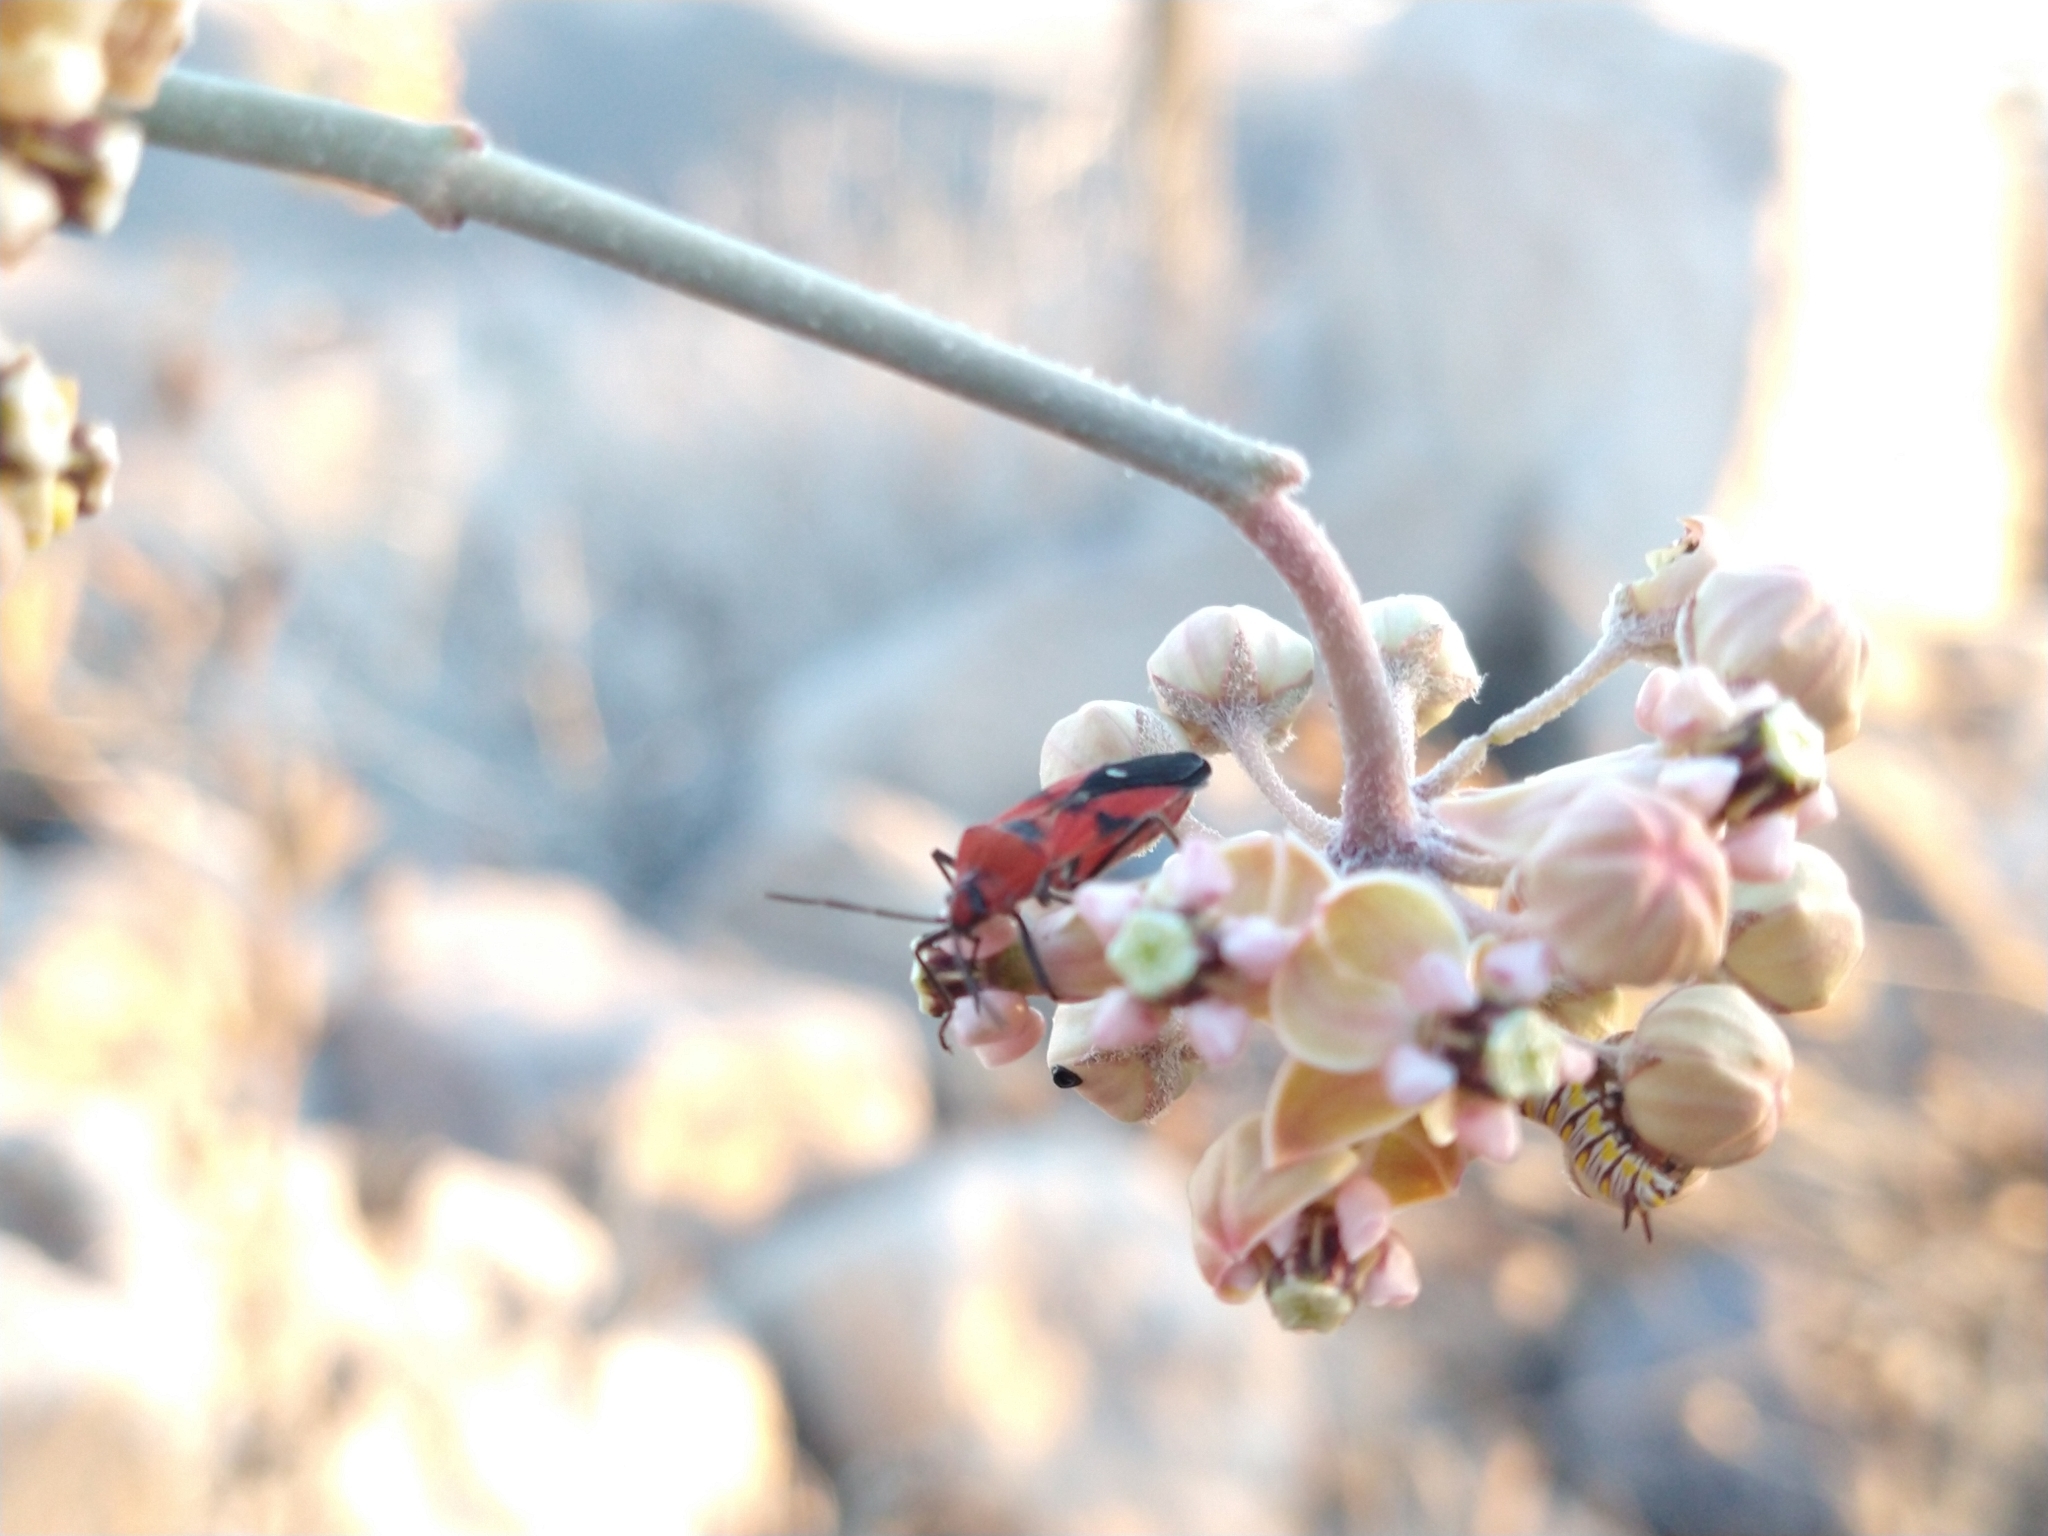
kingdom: Animalia
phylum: Arthropoda
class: Insecta
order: Hemiptera
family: Lygaeidae
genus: Oncopeltus
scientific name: Oncopeltus sanguinolentus
